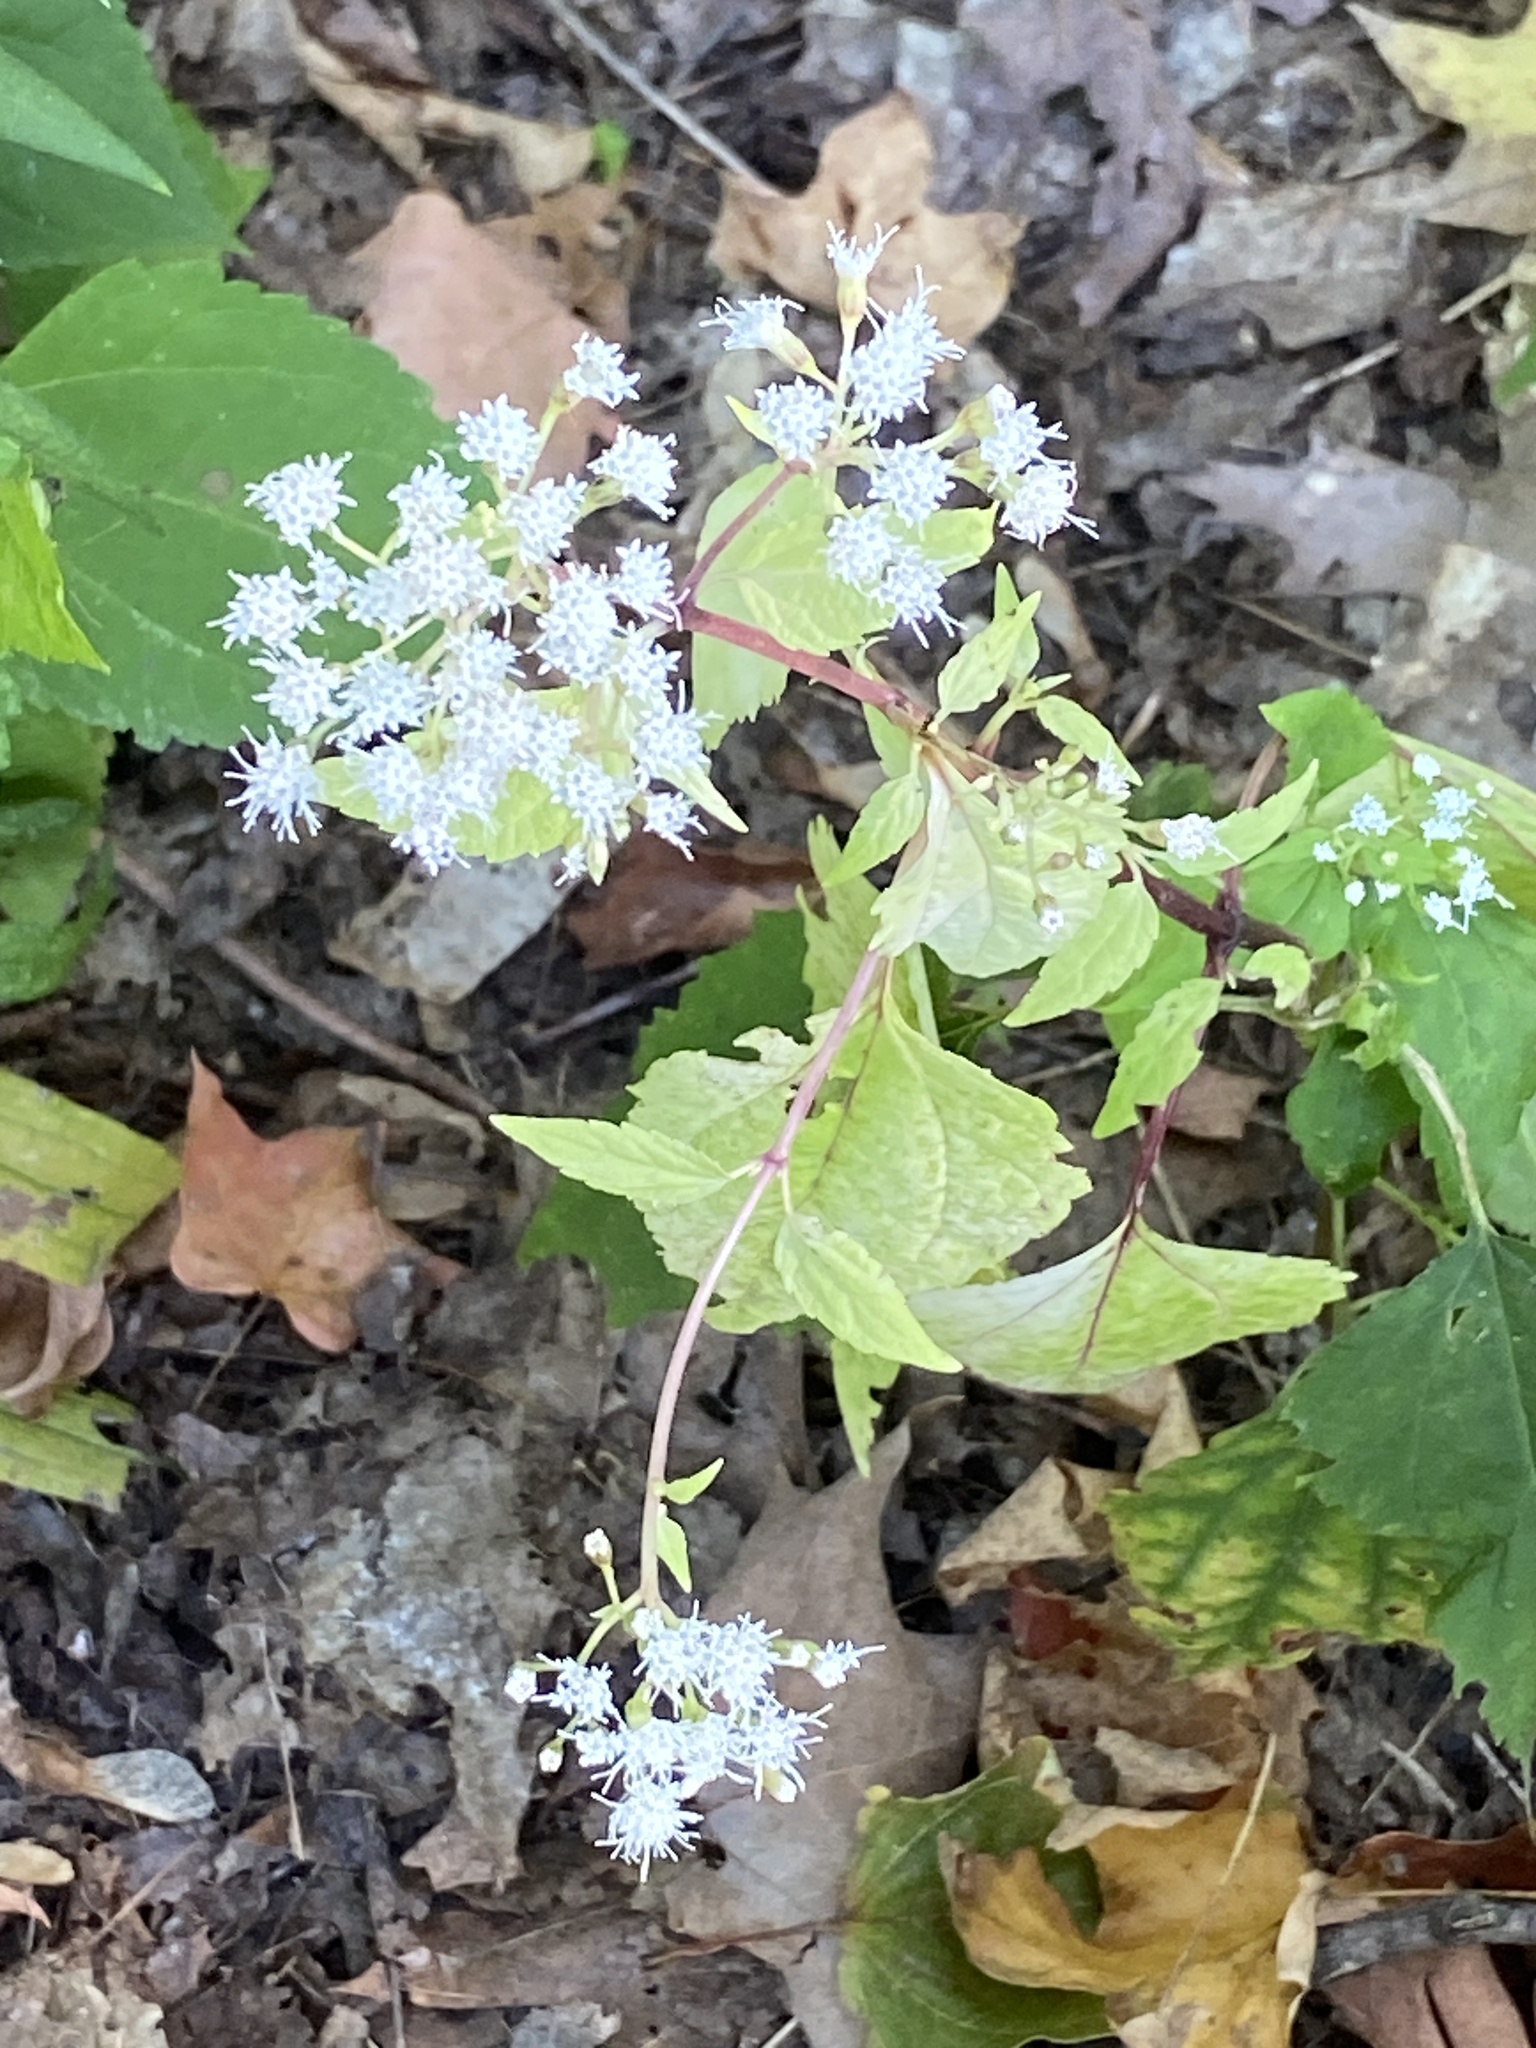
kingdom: Plantae
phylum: Tracheophyta
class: Magnoliopsida
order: Asterales
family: Asteraceae
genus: Ageratina
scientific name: Ageratina altissima
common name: White snakeroot
